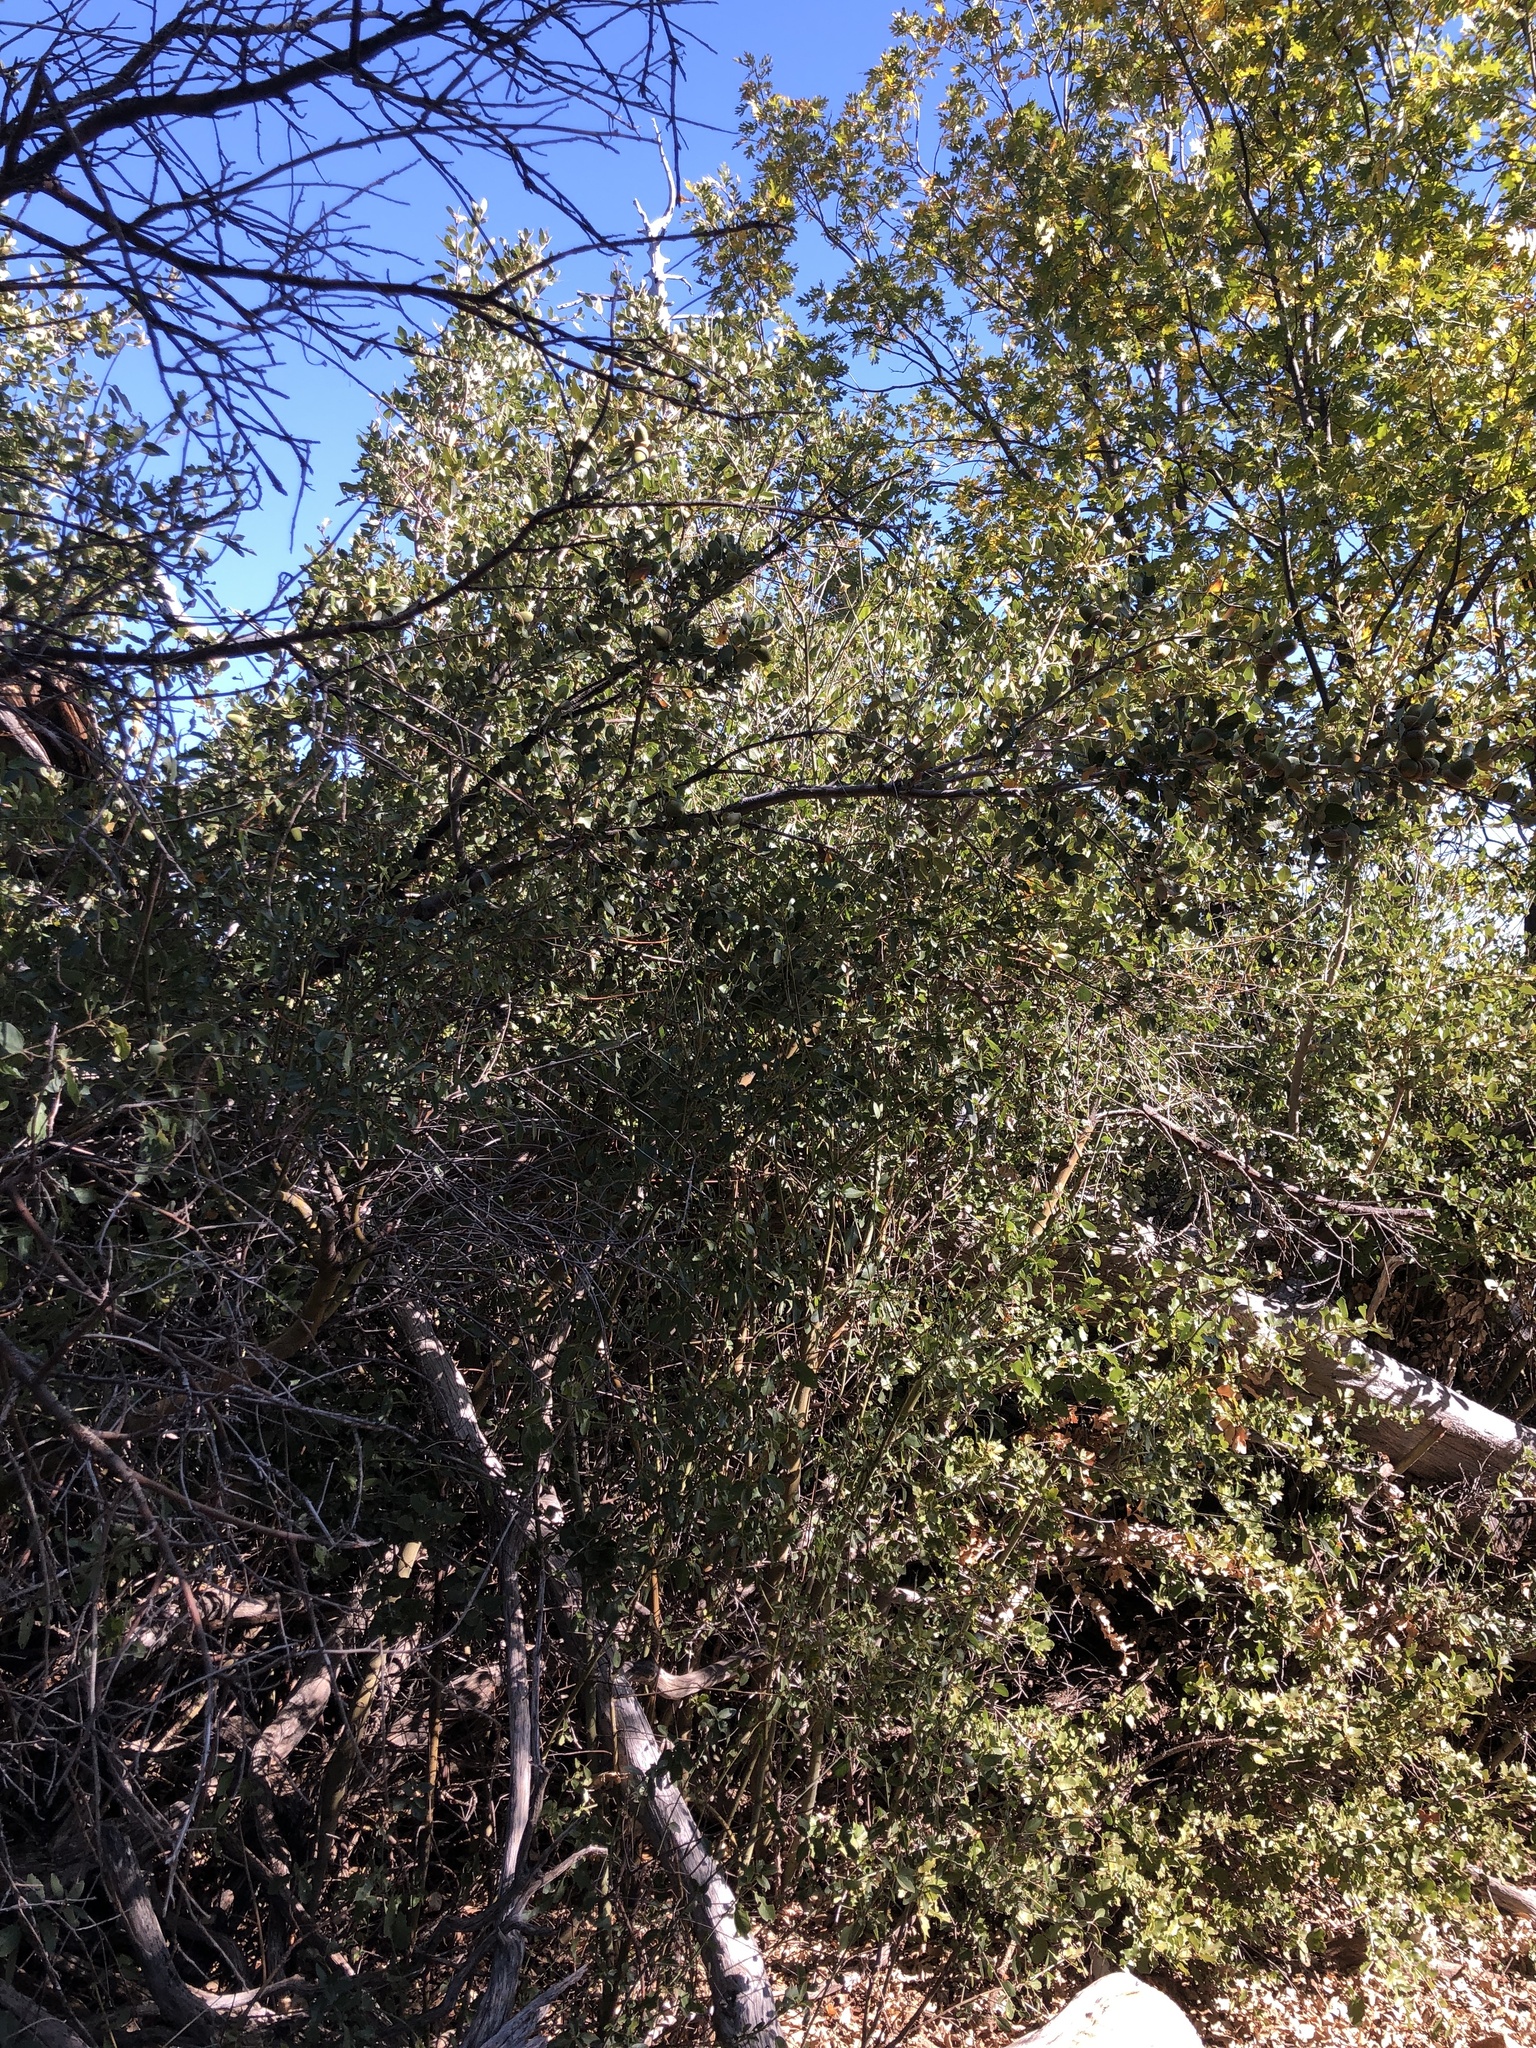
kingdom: Plantae
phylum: Tracheophyta
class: Magnoliopsida
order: Fagales
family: Fagaceae
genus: Quercus
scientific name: Quercus chrysolepis
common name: Canyon live oak
